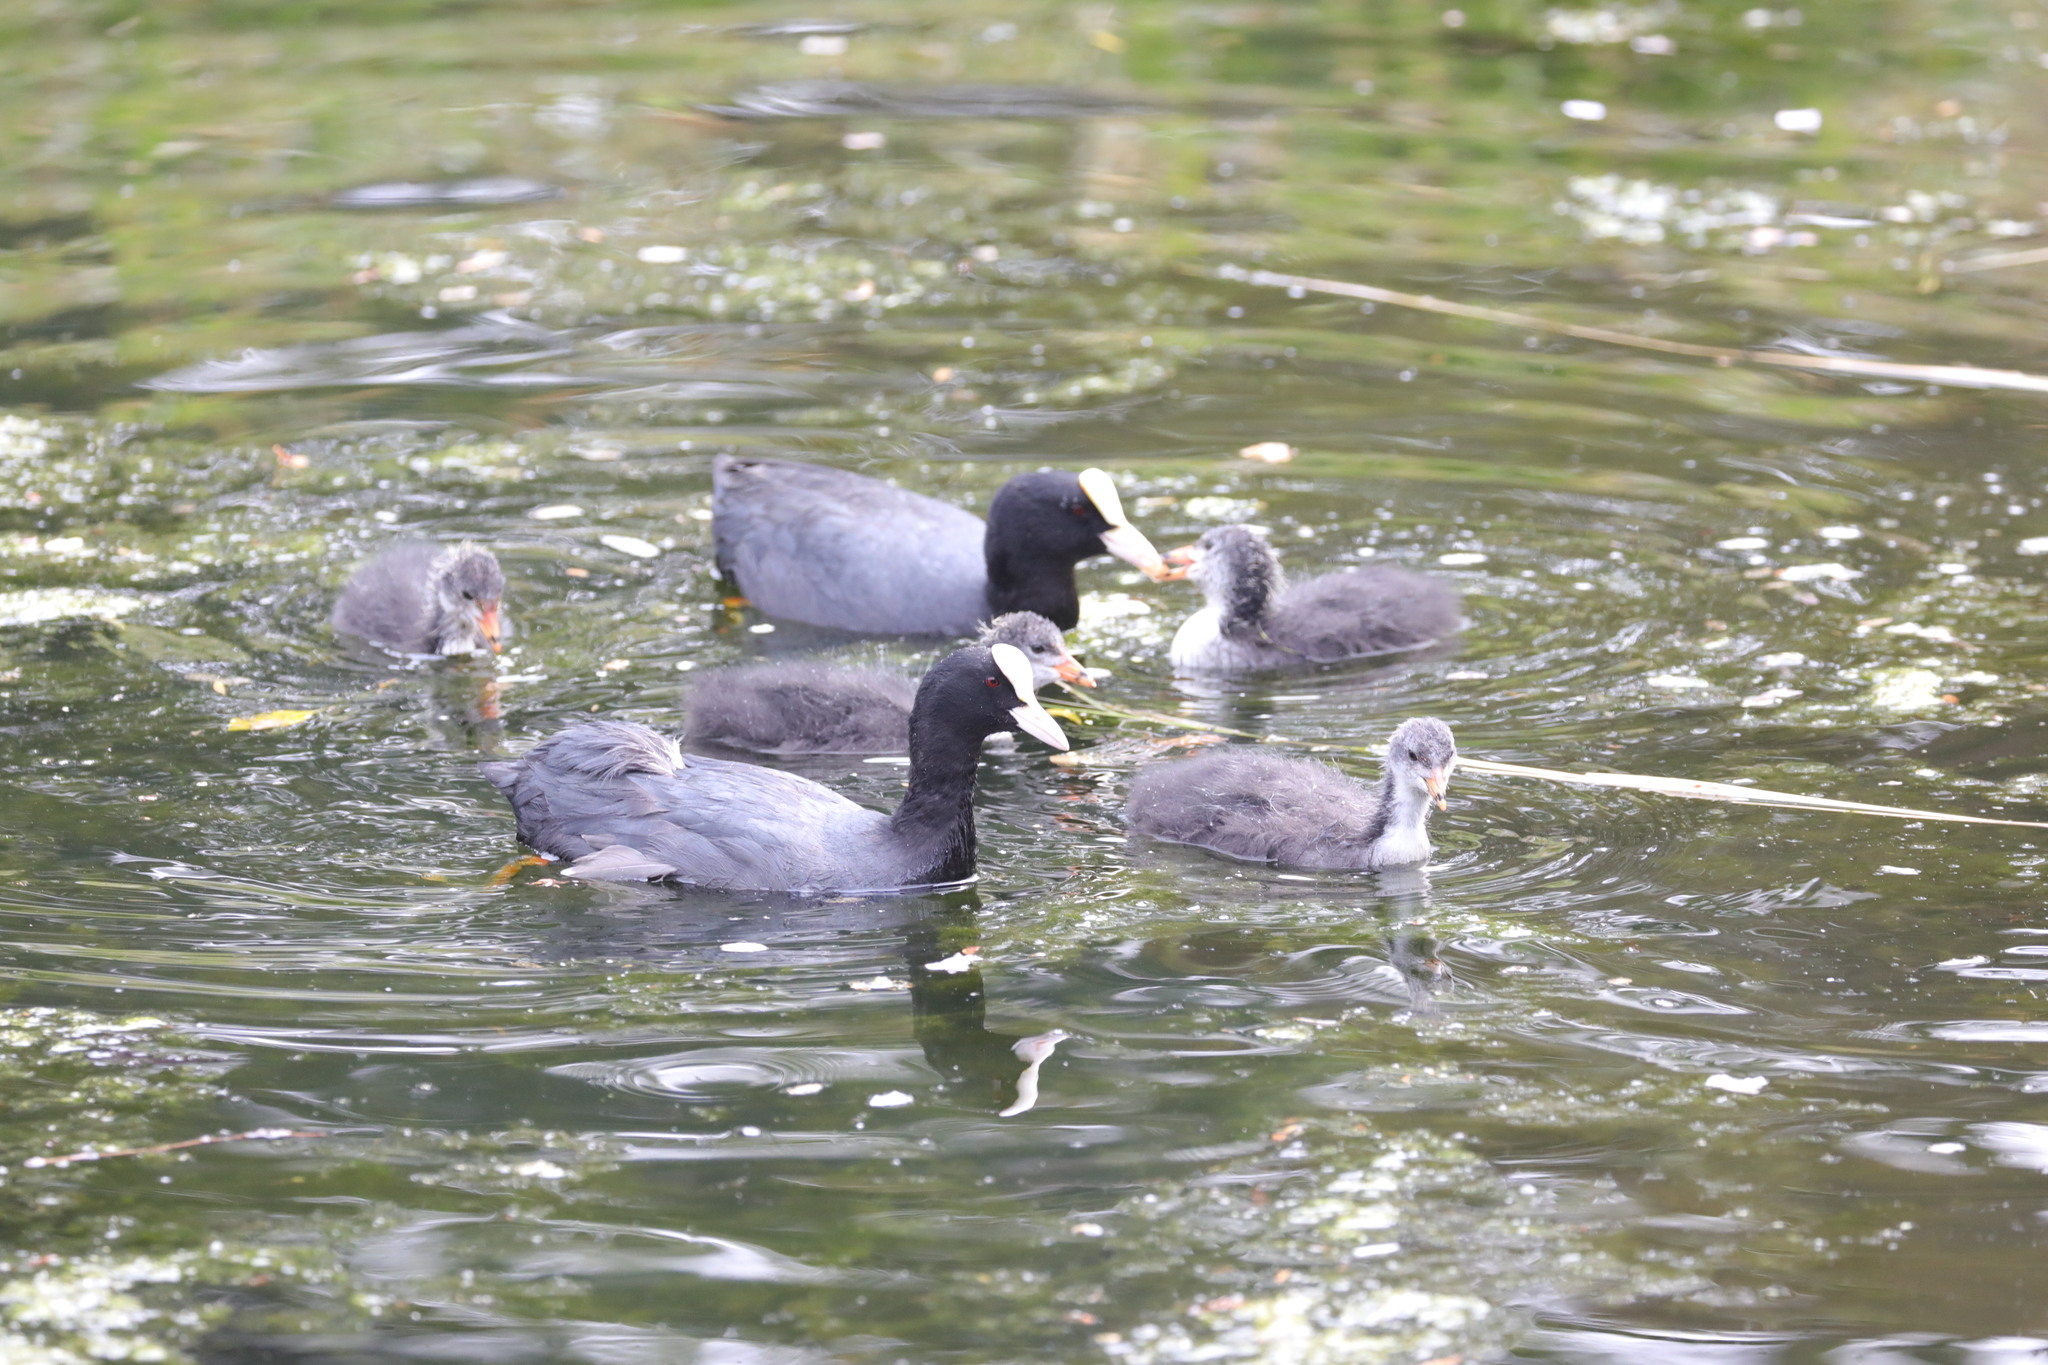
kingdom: Animalia
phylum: Chordata
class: Aves
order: Gruiformes
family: Rallidae
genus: Fulica
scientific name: Fulica atra
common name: Eurasian coot
